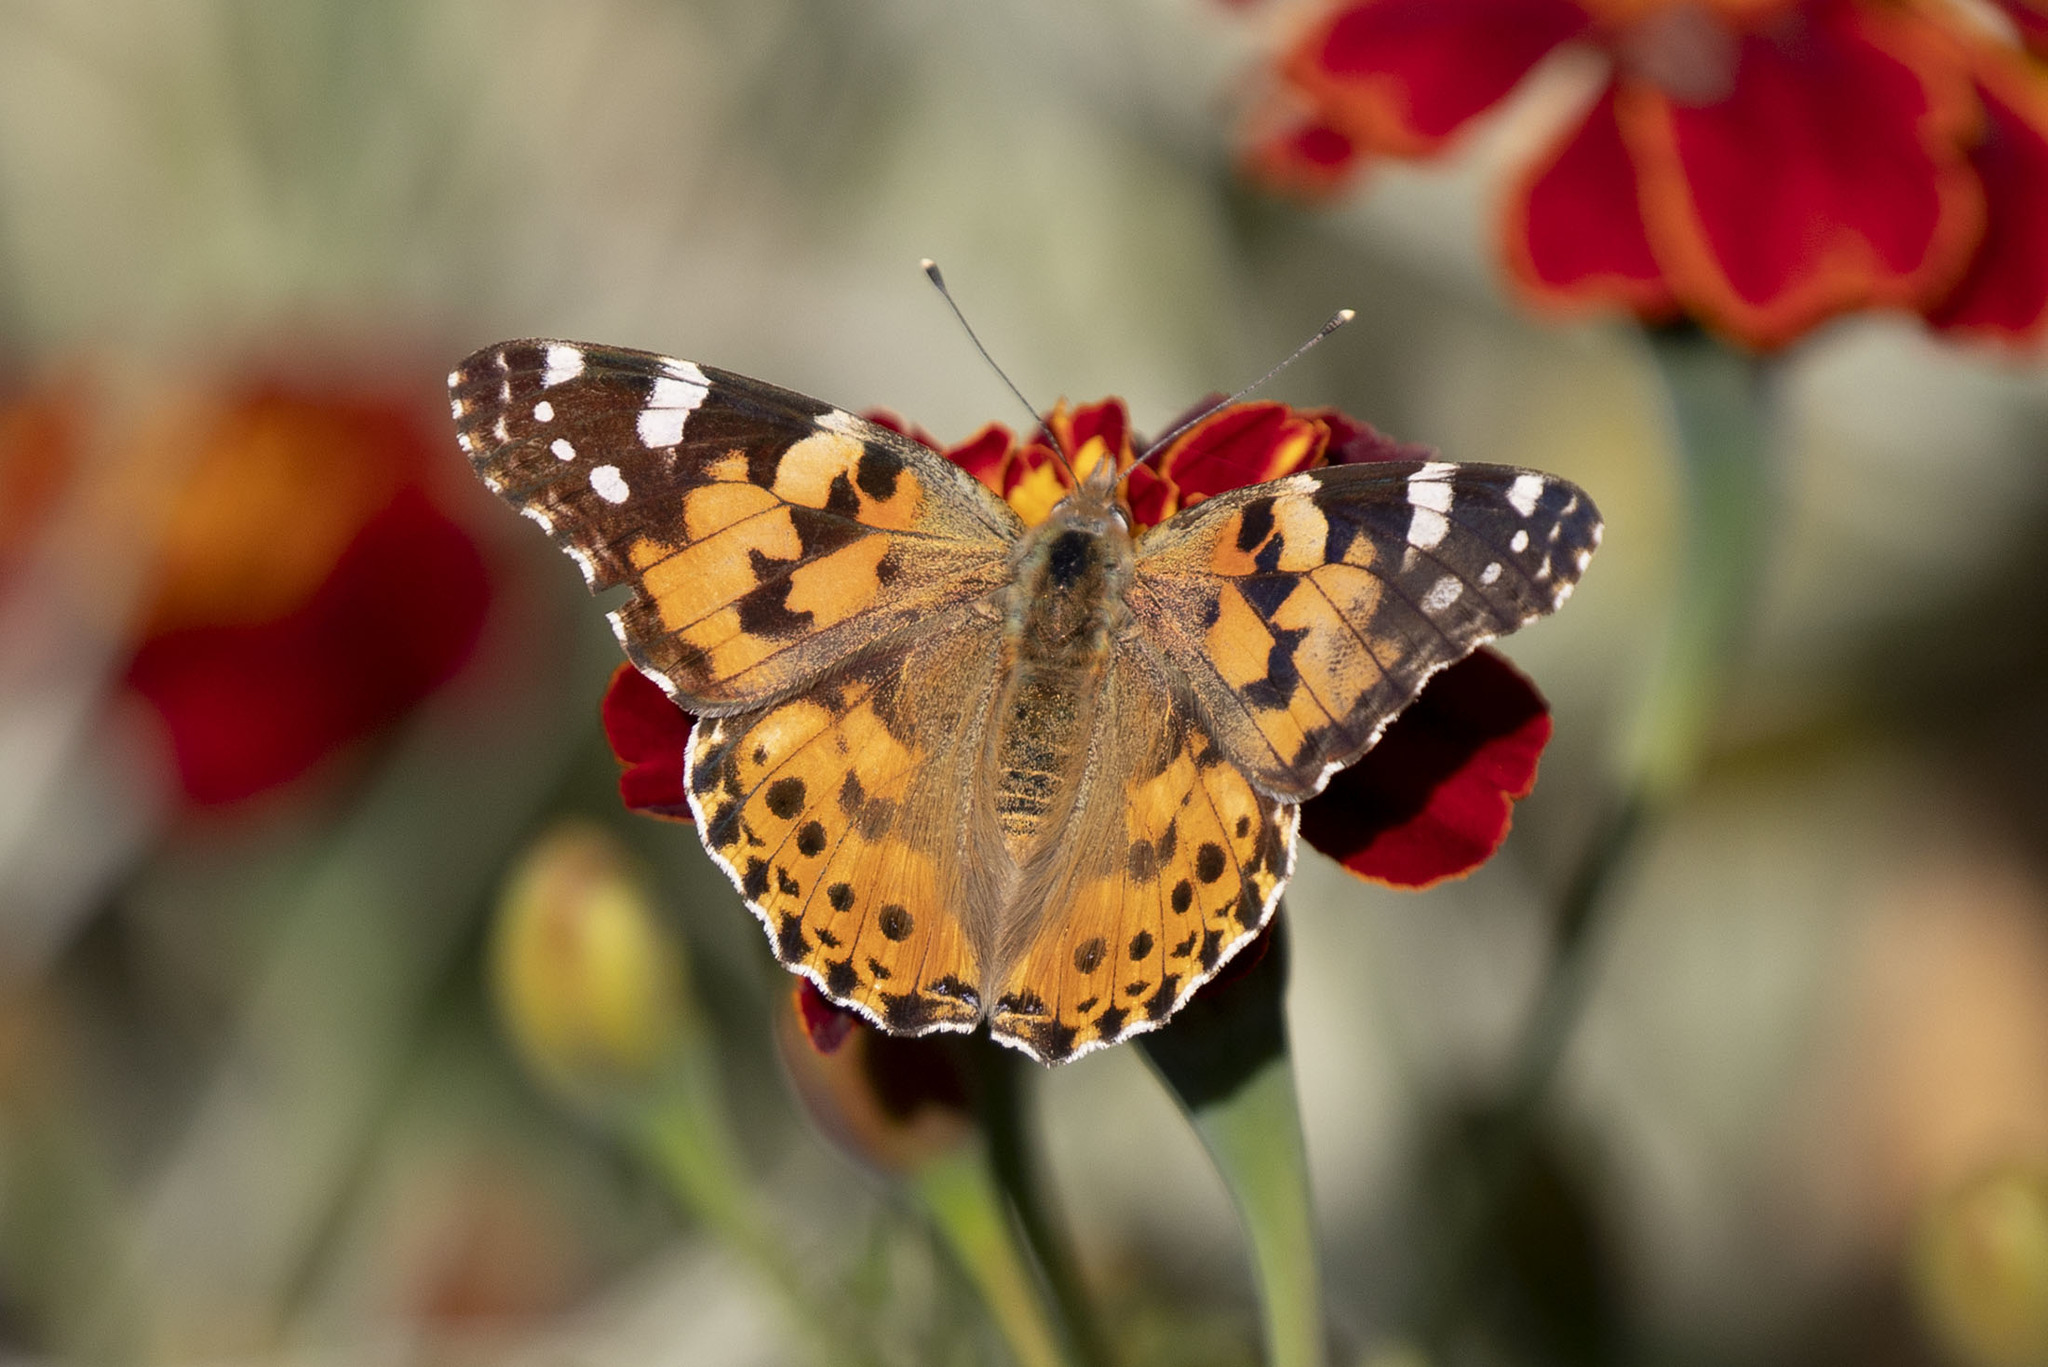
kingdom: Animalia
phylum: Arthropoda
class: Insecta
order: Lepidoptera
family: Nymphalidae
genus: Vanessa
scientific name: Vanessa cardui
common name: Painted lady
